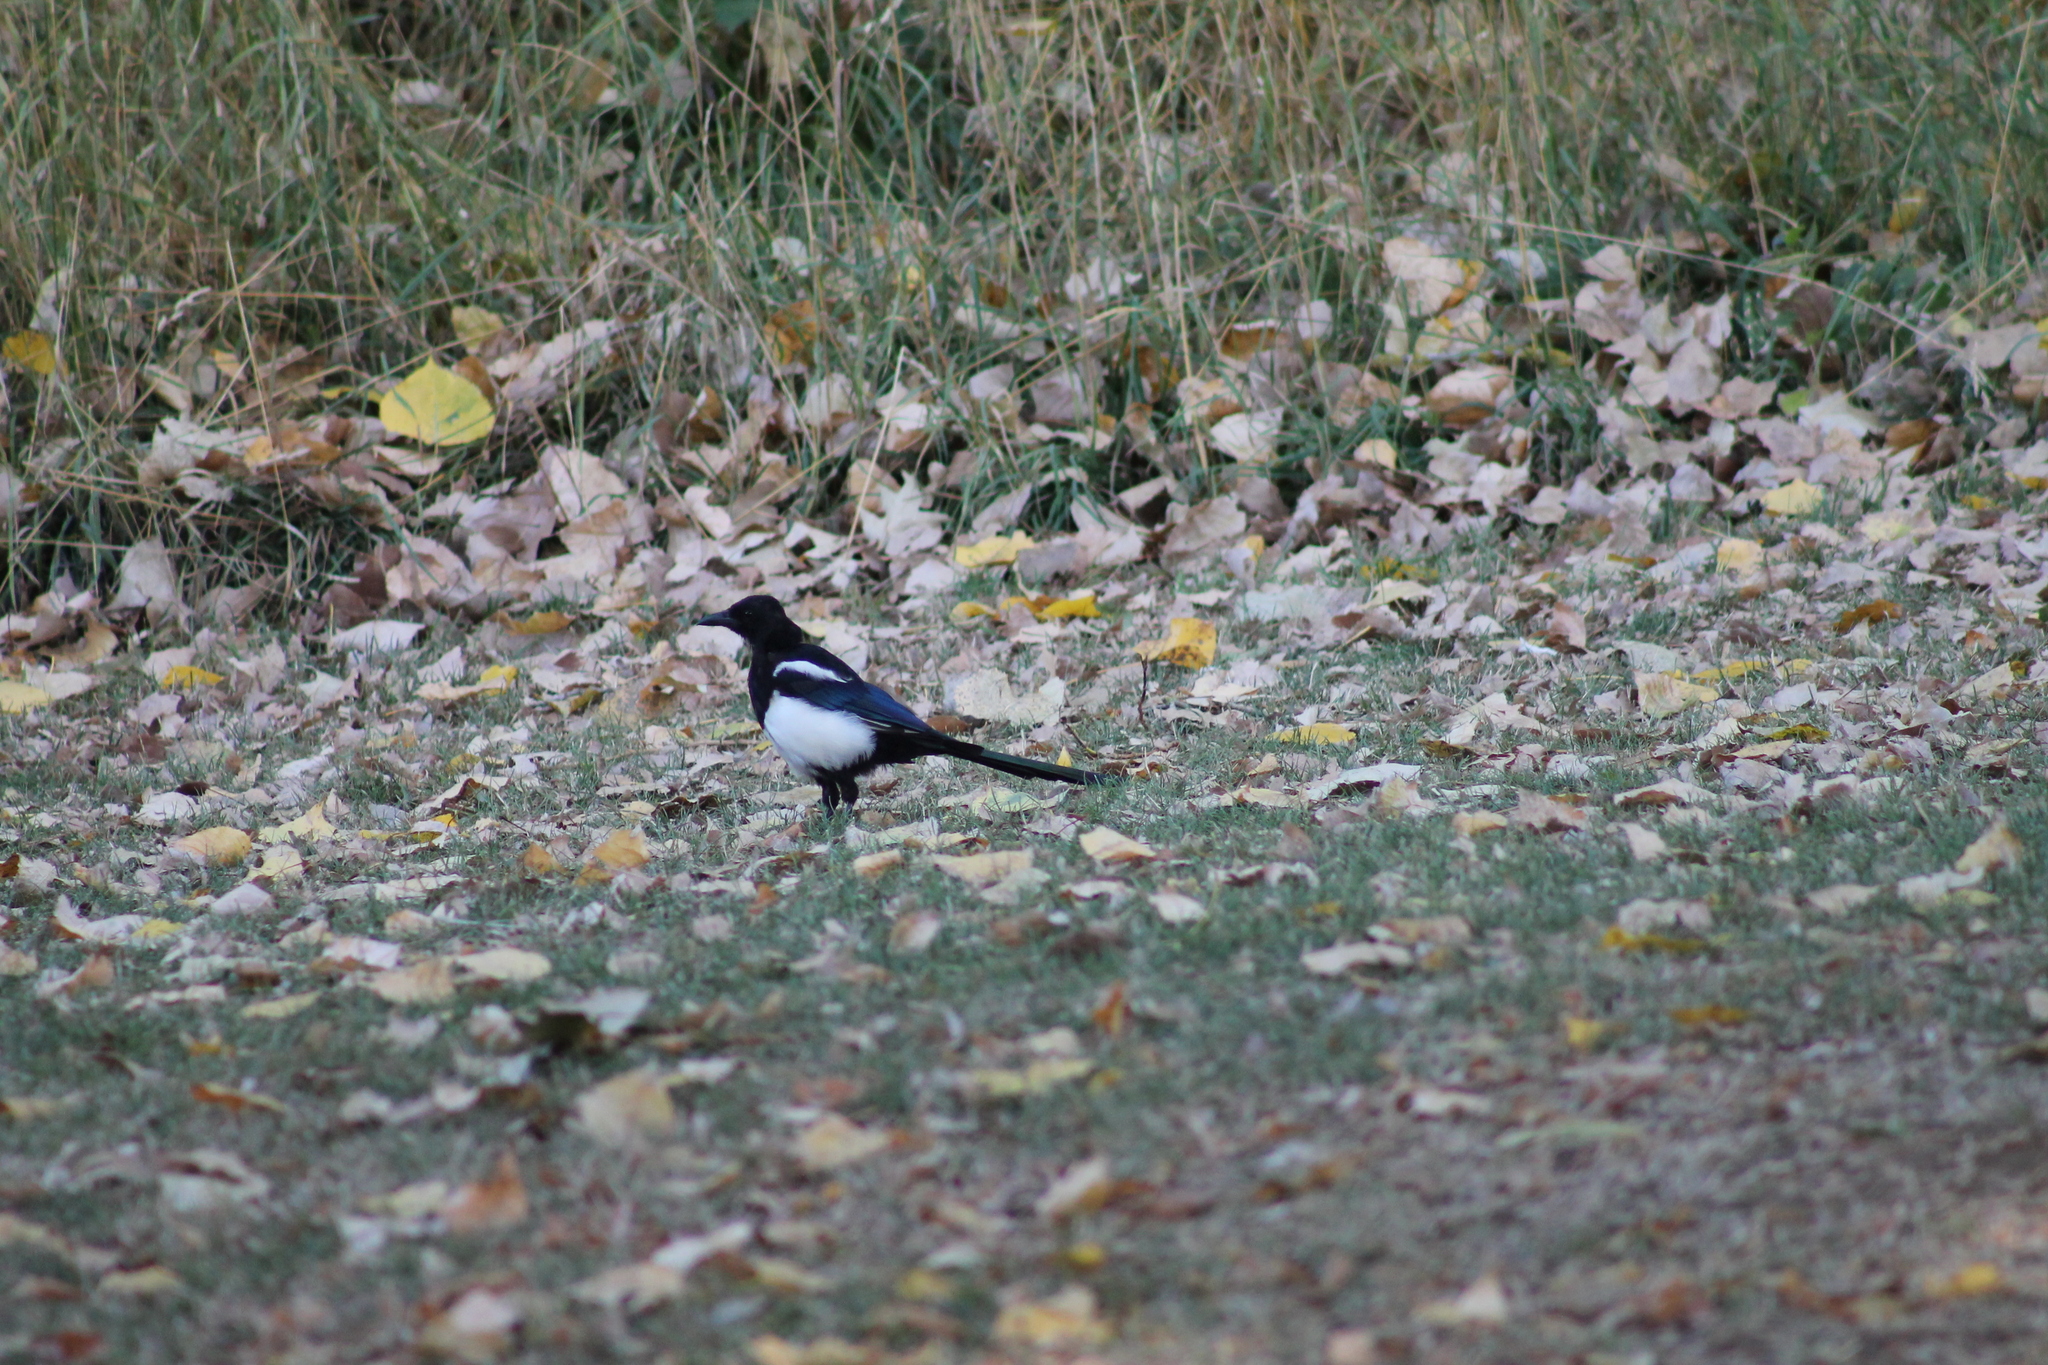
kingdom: Animalia
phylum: Chordata
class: Aves
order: Passeriformes
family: Corvidae
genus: Pica
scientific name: Pica pica
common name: Eurasian magpie
